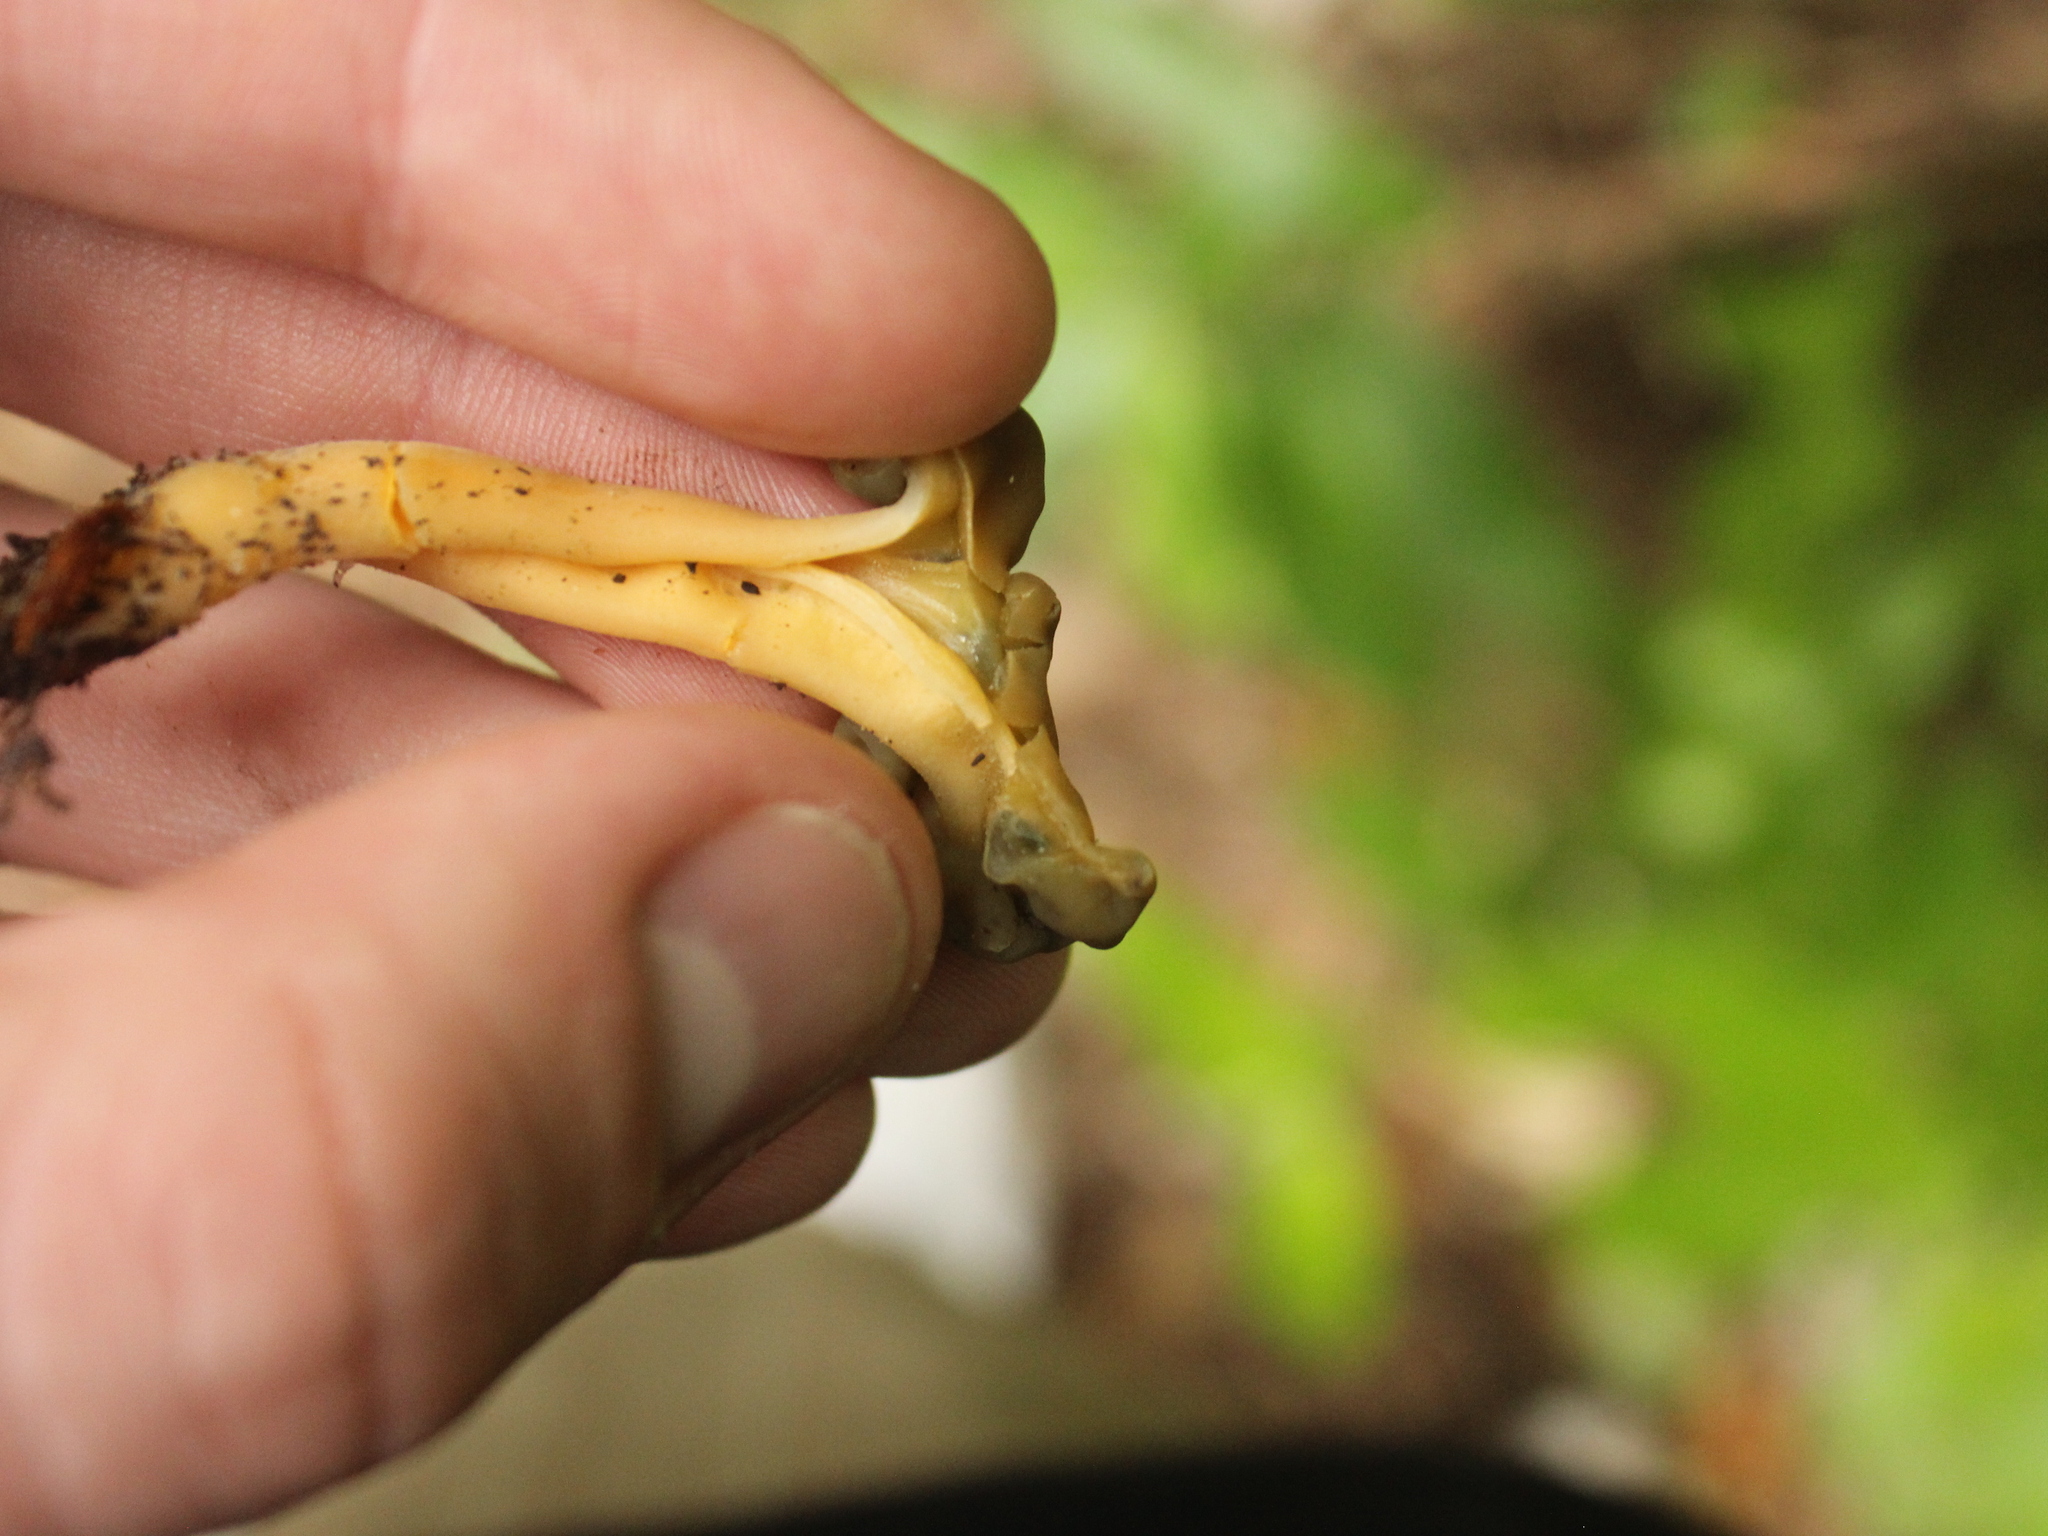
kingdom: Fungi
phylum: Ascomycota
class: Leotiomycetes
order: Leotiales
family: Leotiaceae
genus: Leotia
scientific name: Leotia lubrica
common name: Jellybaby
